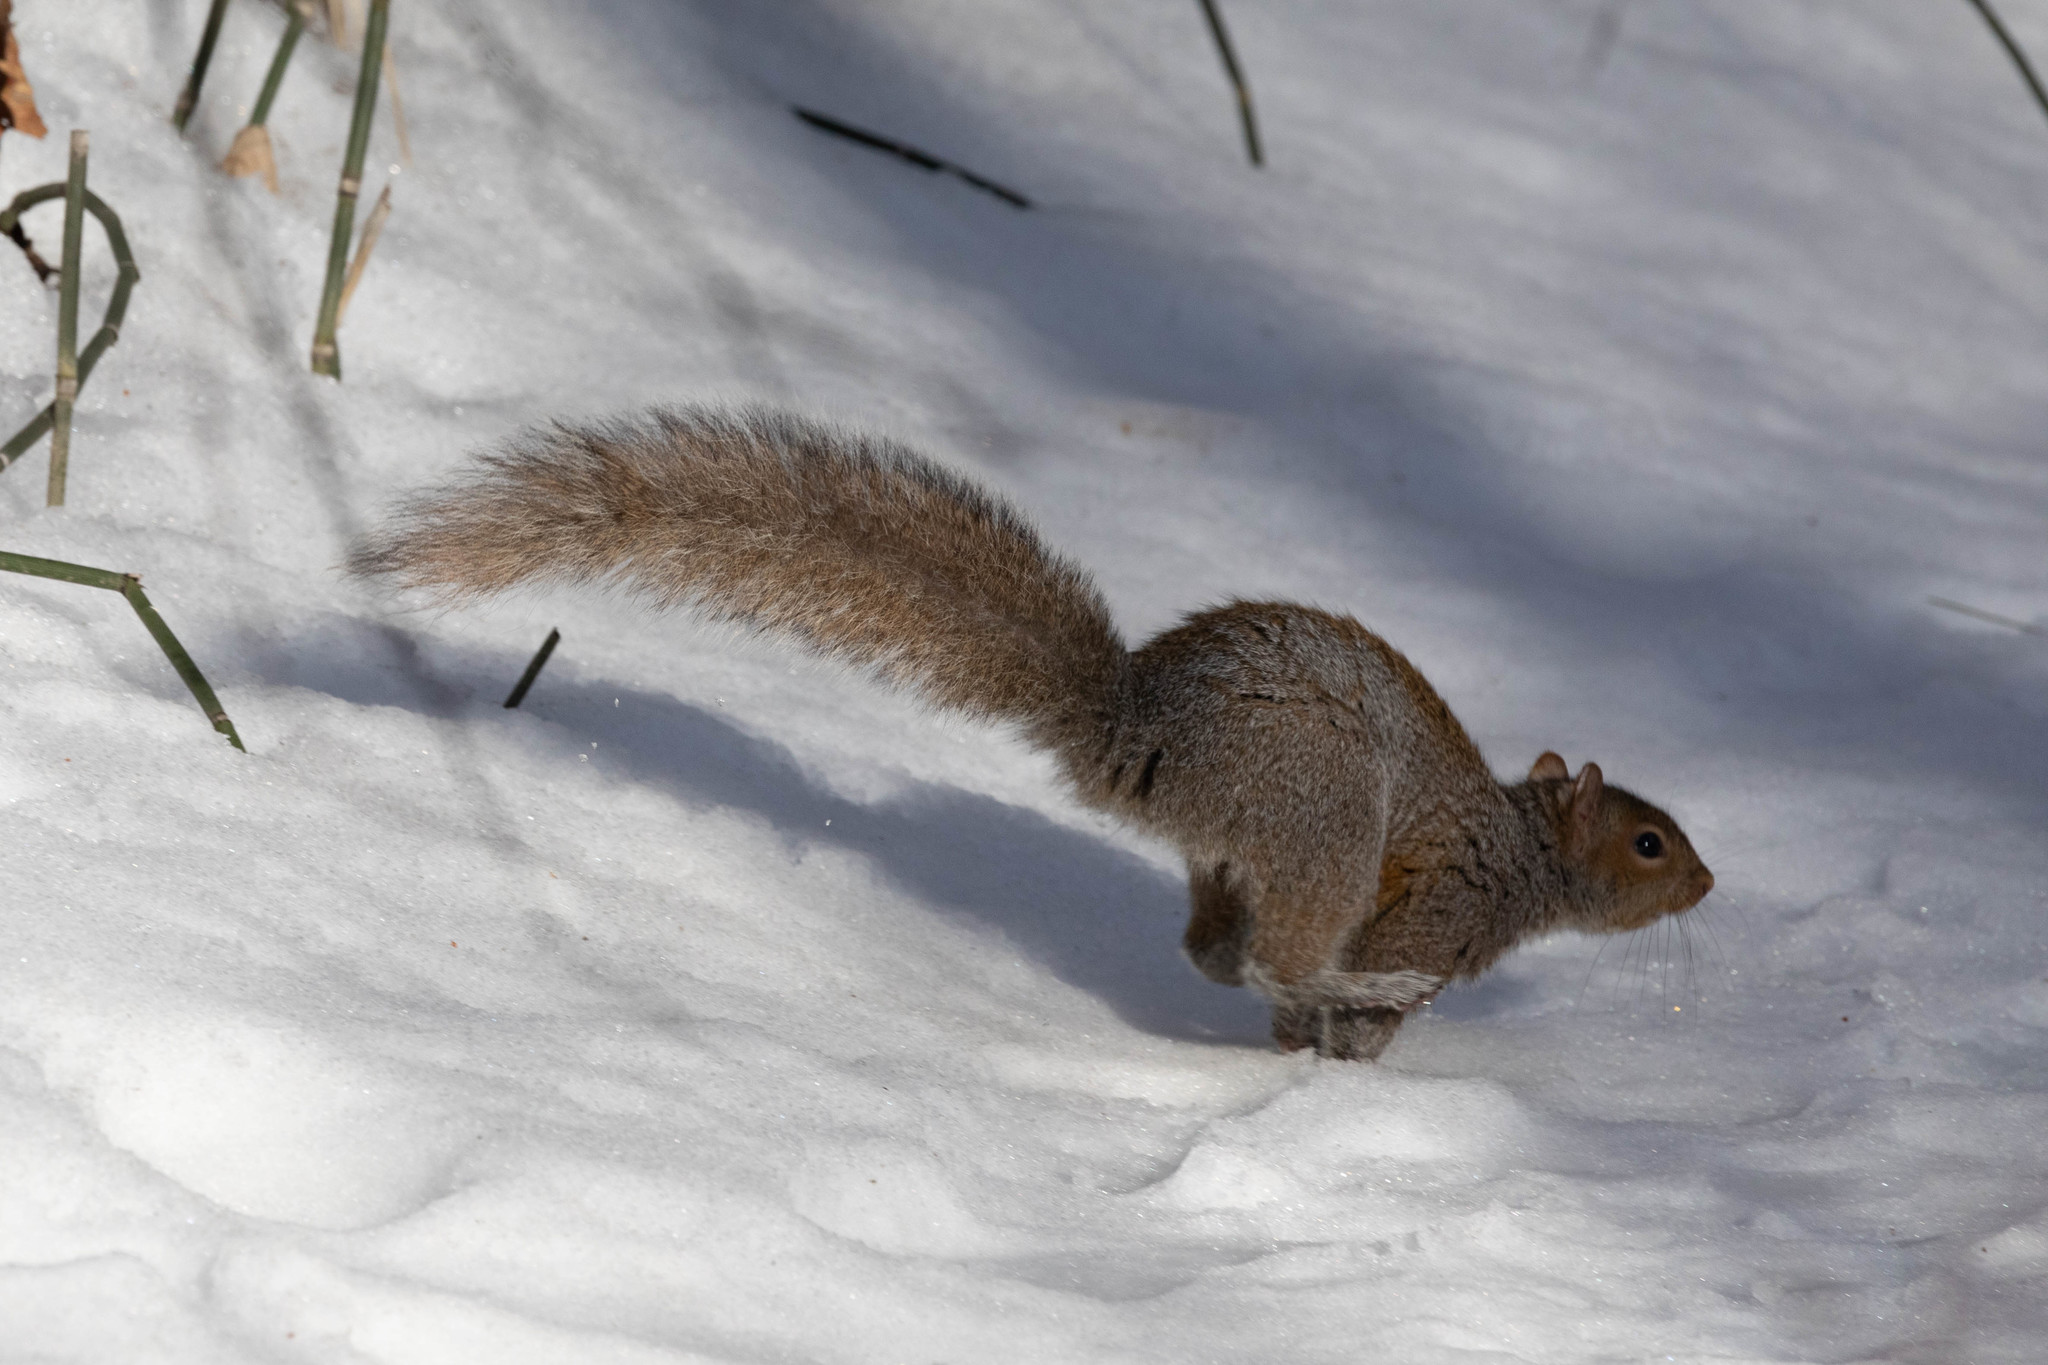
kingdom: Animalia
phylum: Chordata
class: Mammalia
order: Rodentia
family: Sciuridae
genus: Sciurus
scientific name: Sciurus carolinensis
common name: Eastern gray squirrel
